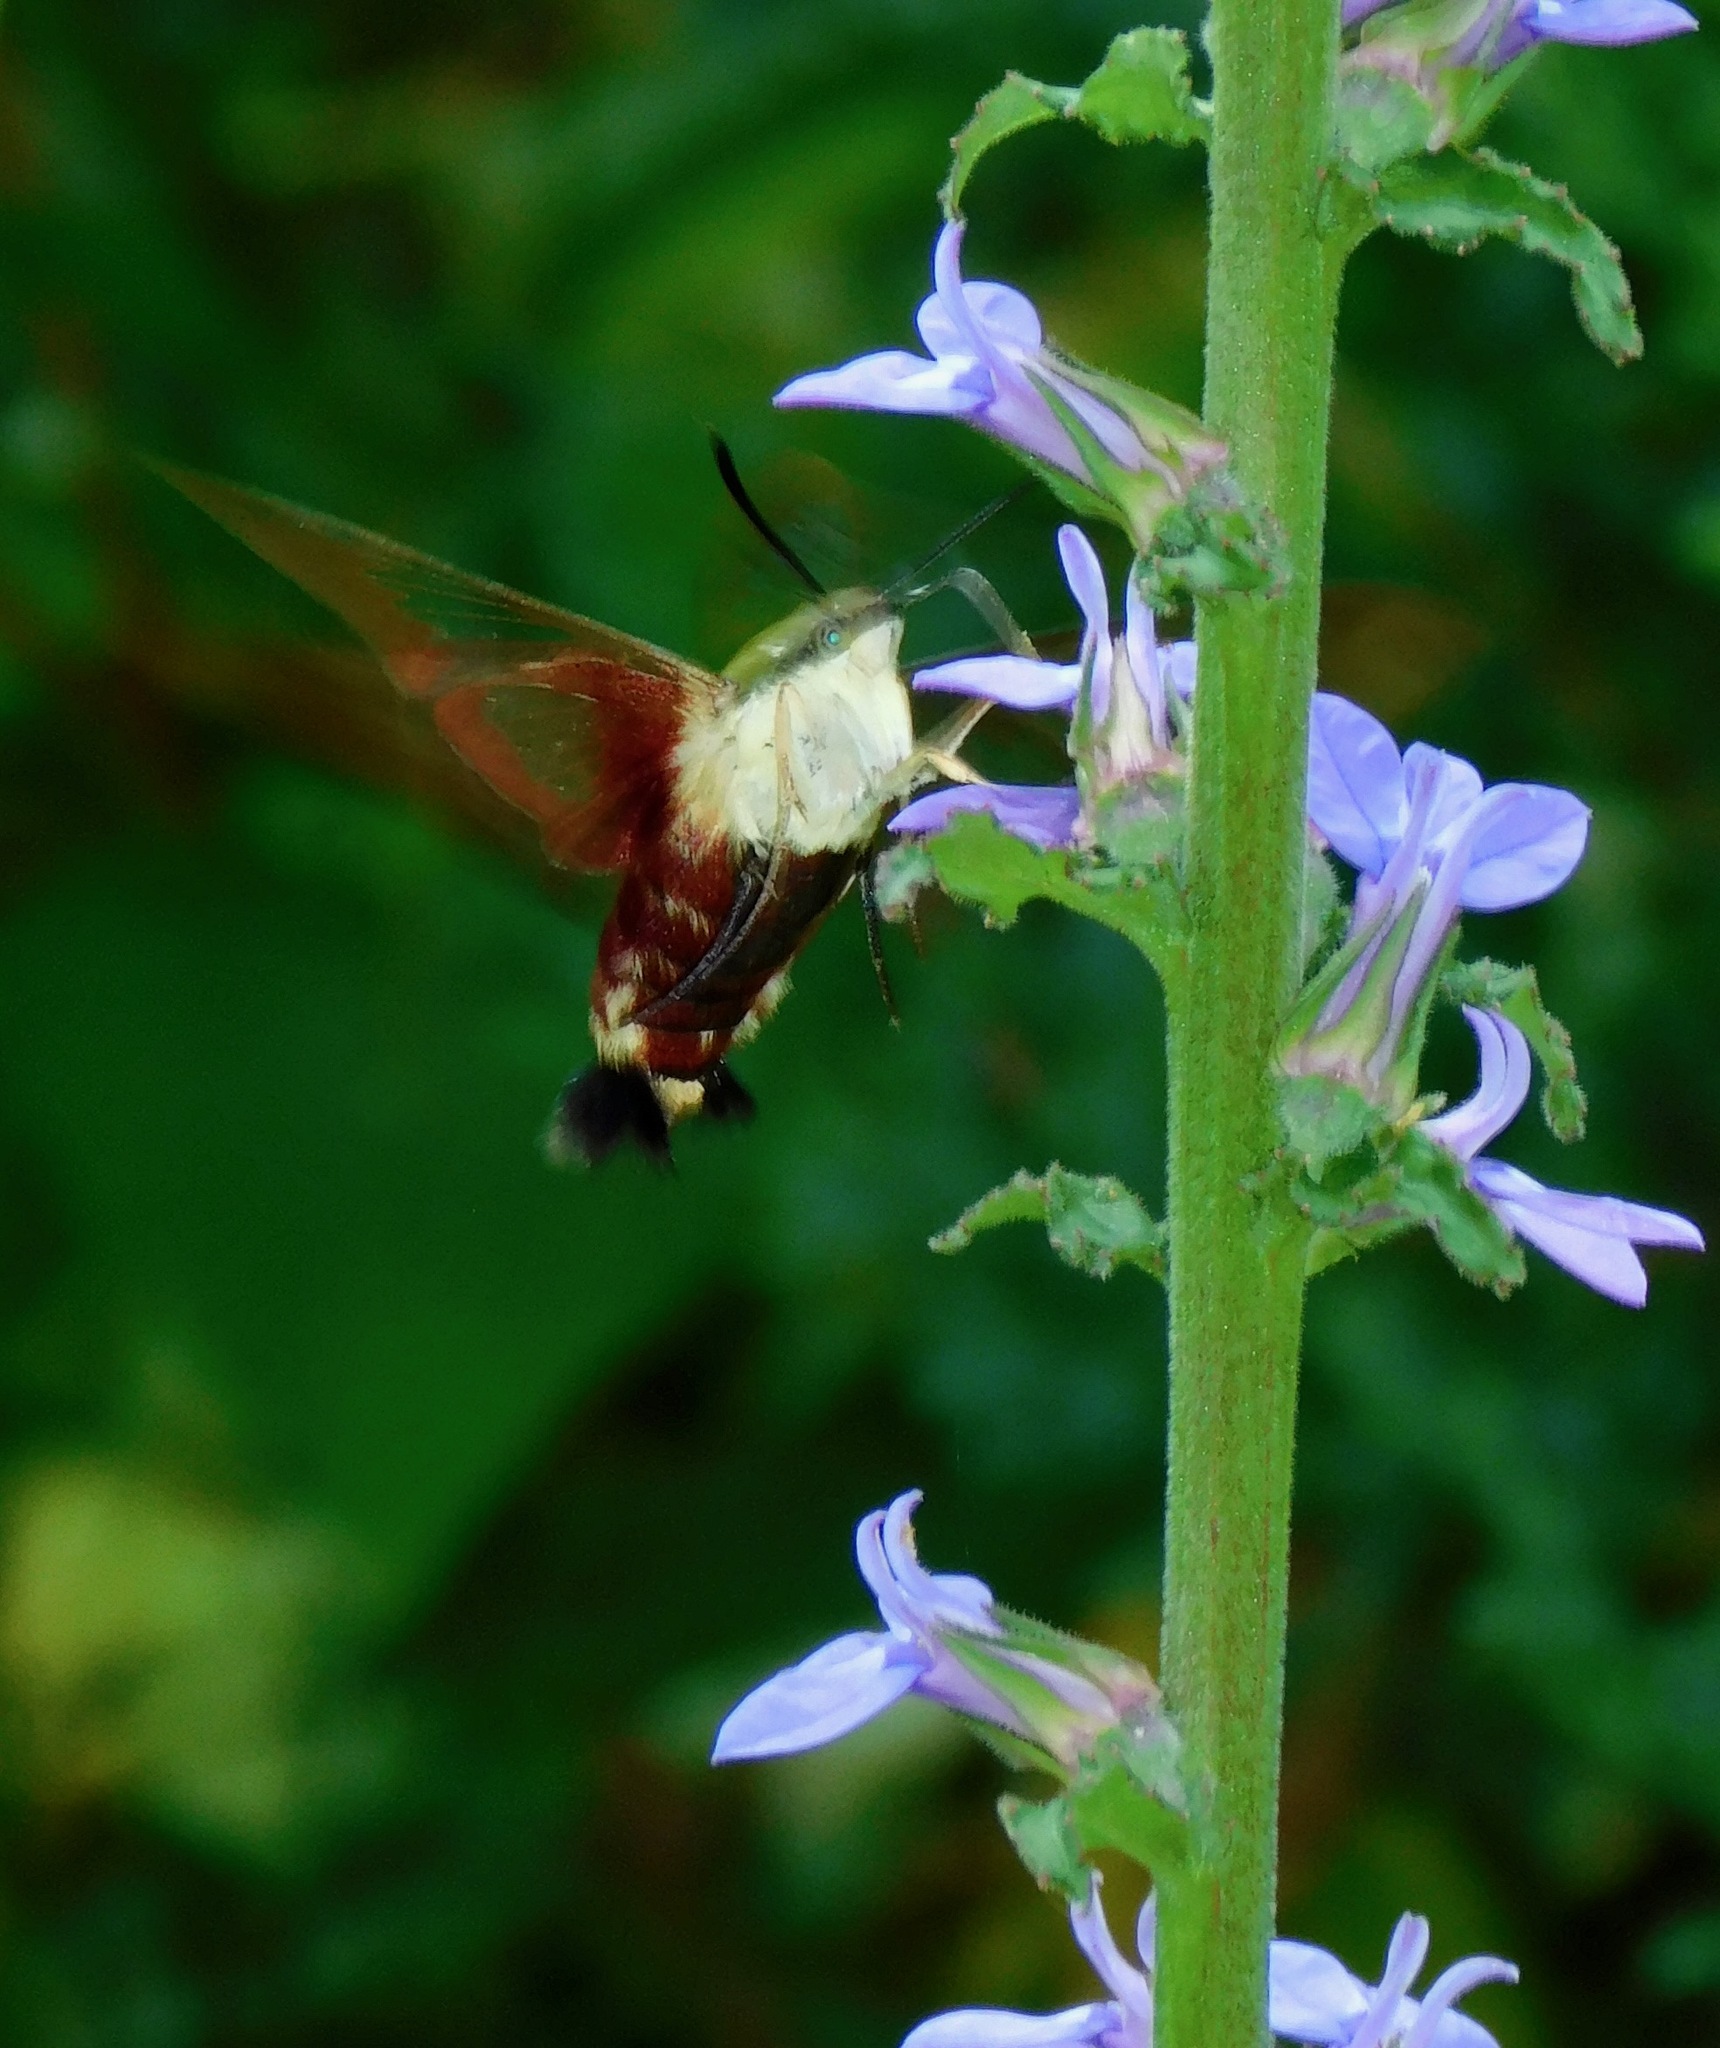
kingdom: Animalia
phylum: Arthropoda
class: Insecta
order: Lepidoptera
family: Sphingidae
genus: Hemaris
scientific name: Hemaris thysbe
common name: Common clear-wing
